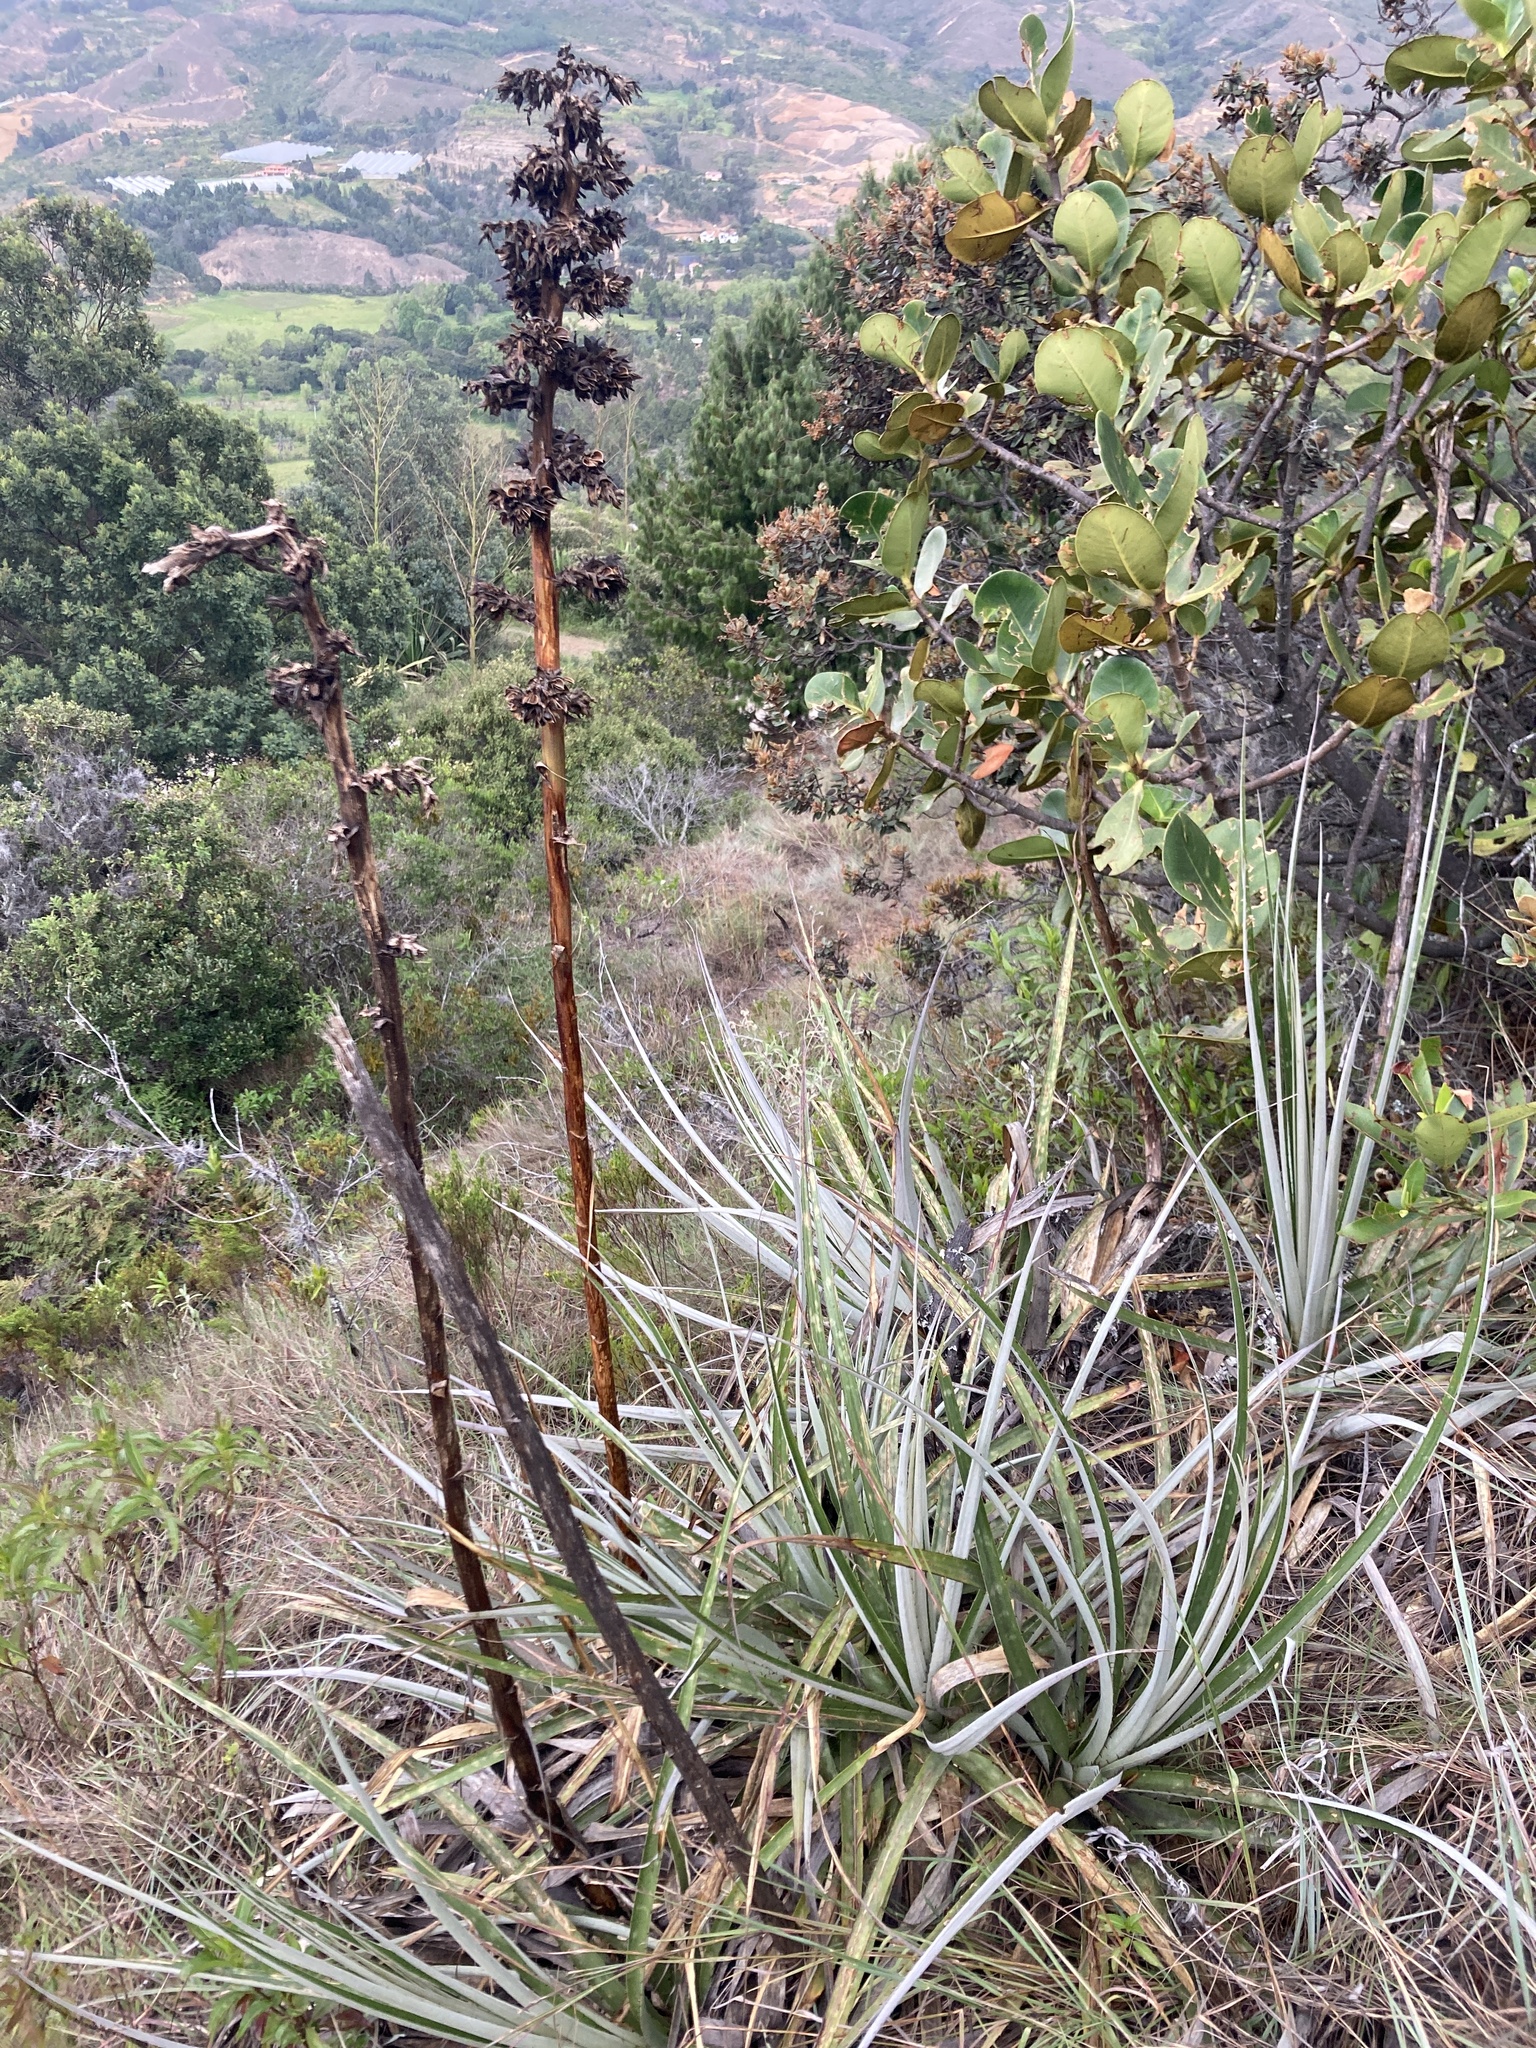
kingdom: Plantae
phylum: Tracheophyta
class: Liliopsida
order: Poales
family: Bromeliaceae
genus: Puya
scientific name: Puya bicolor
